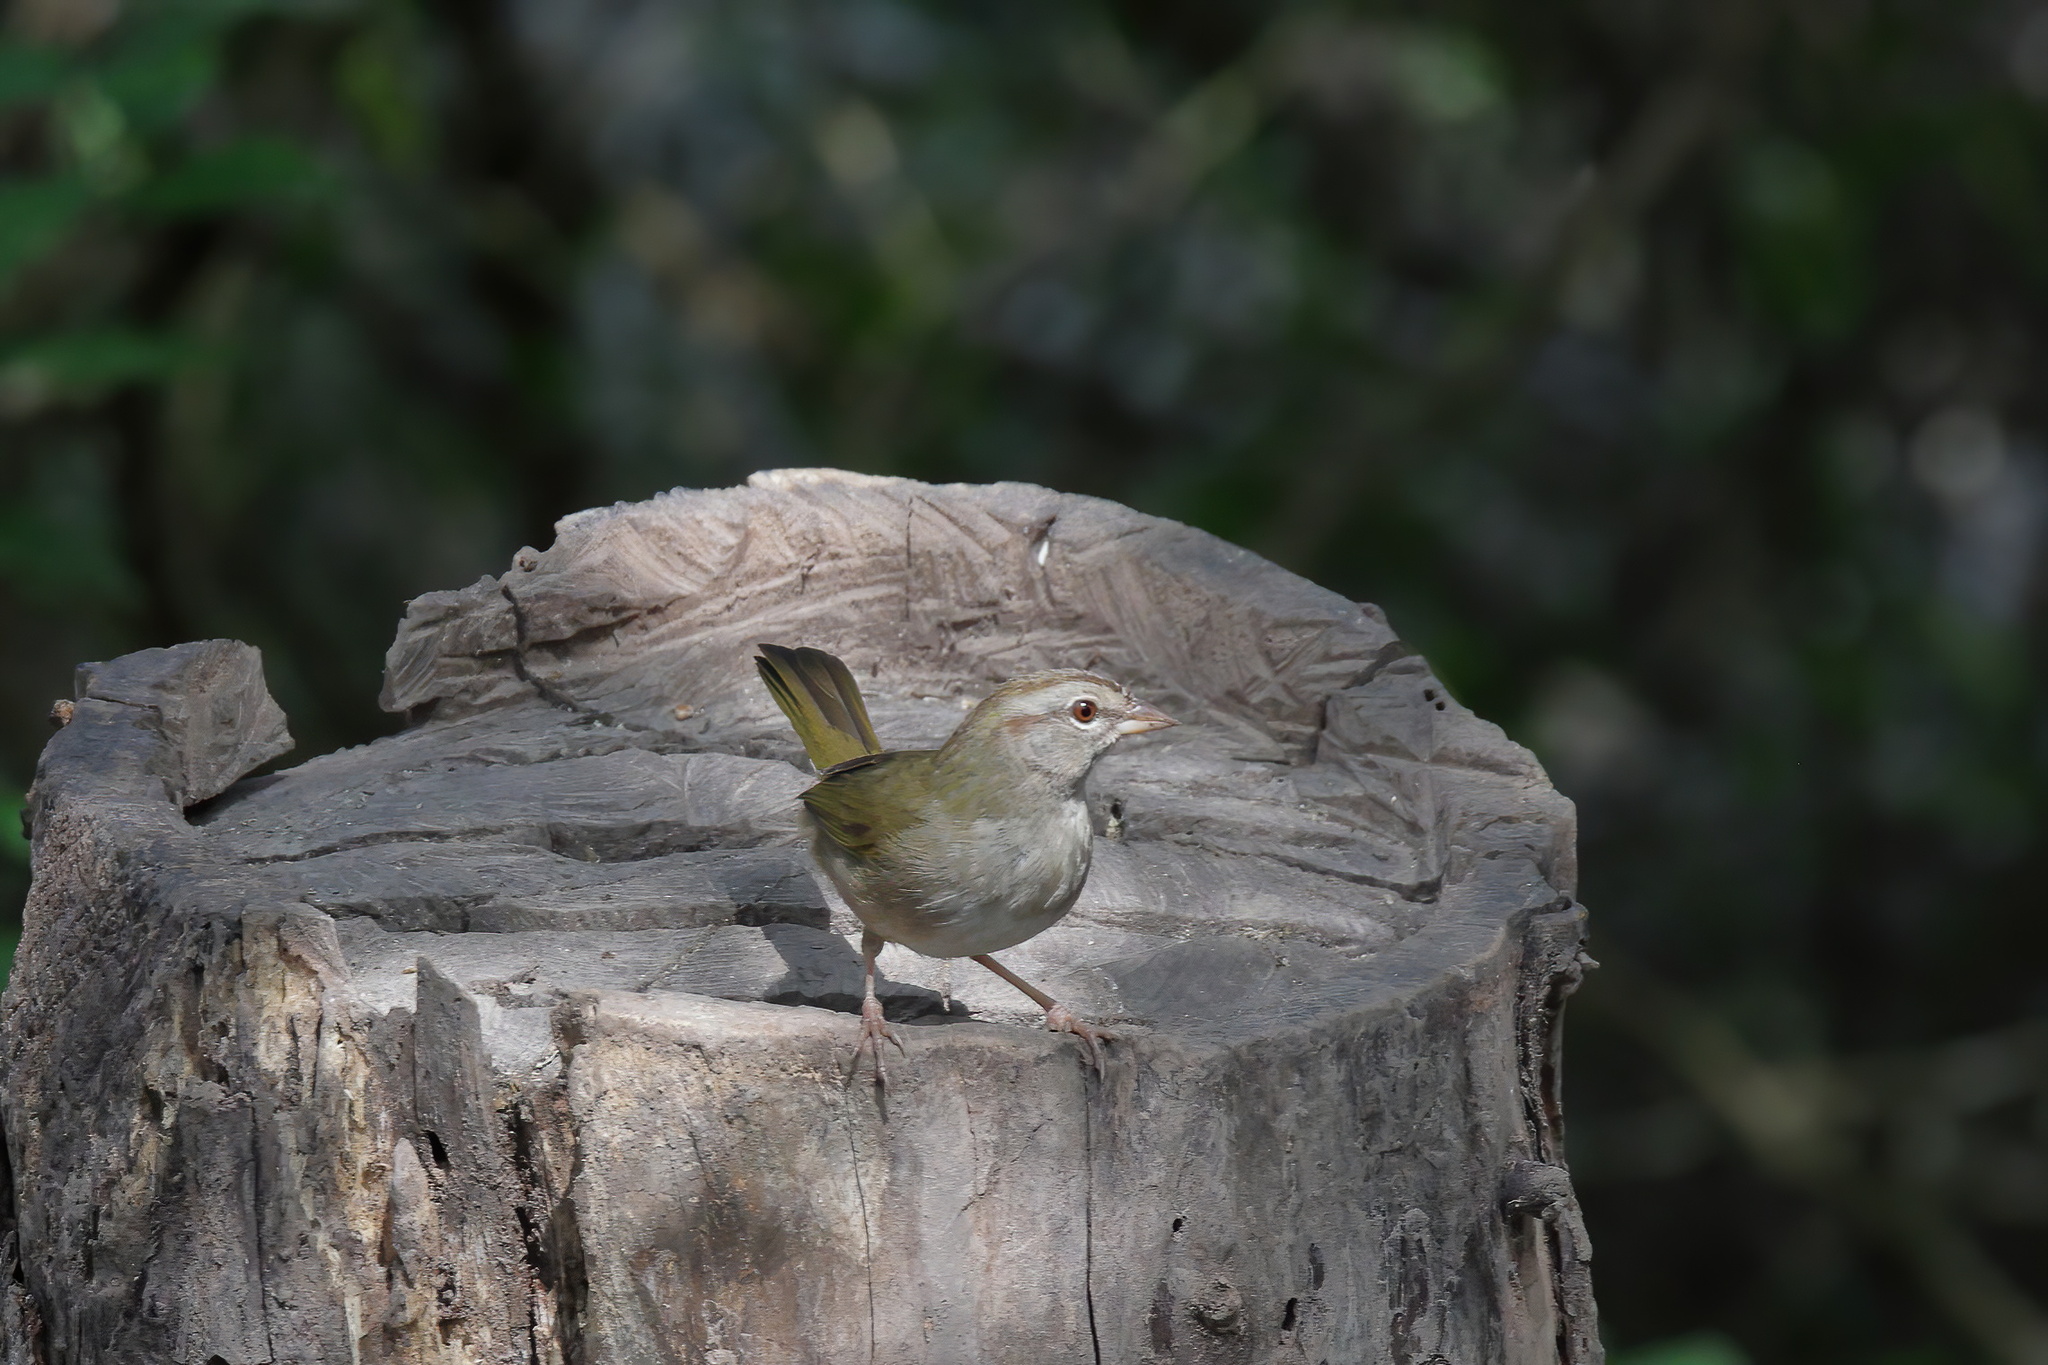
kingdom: Animalia
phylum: Chordata
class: Aves
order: Passeriformes
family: Passerellidae
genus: Arremonops
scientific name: Arremonops rufivirgatus
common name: Olive sparrow
